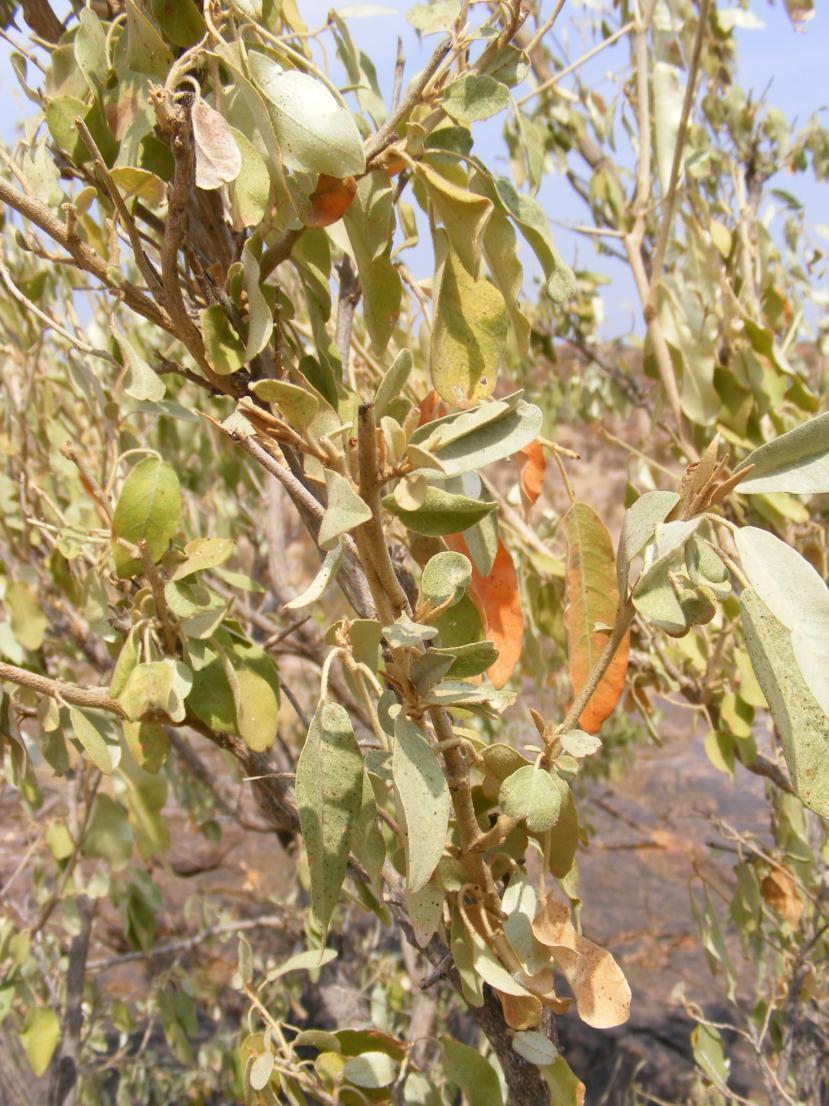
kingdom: Plantae
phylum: Tracheophyta
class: Magnoliopsida
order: Malpighiales
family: Euphorbiaceae
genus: Croton
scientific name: Croton gratissimus
